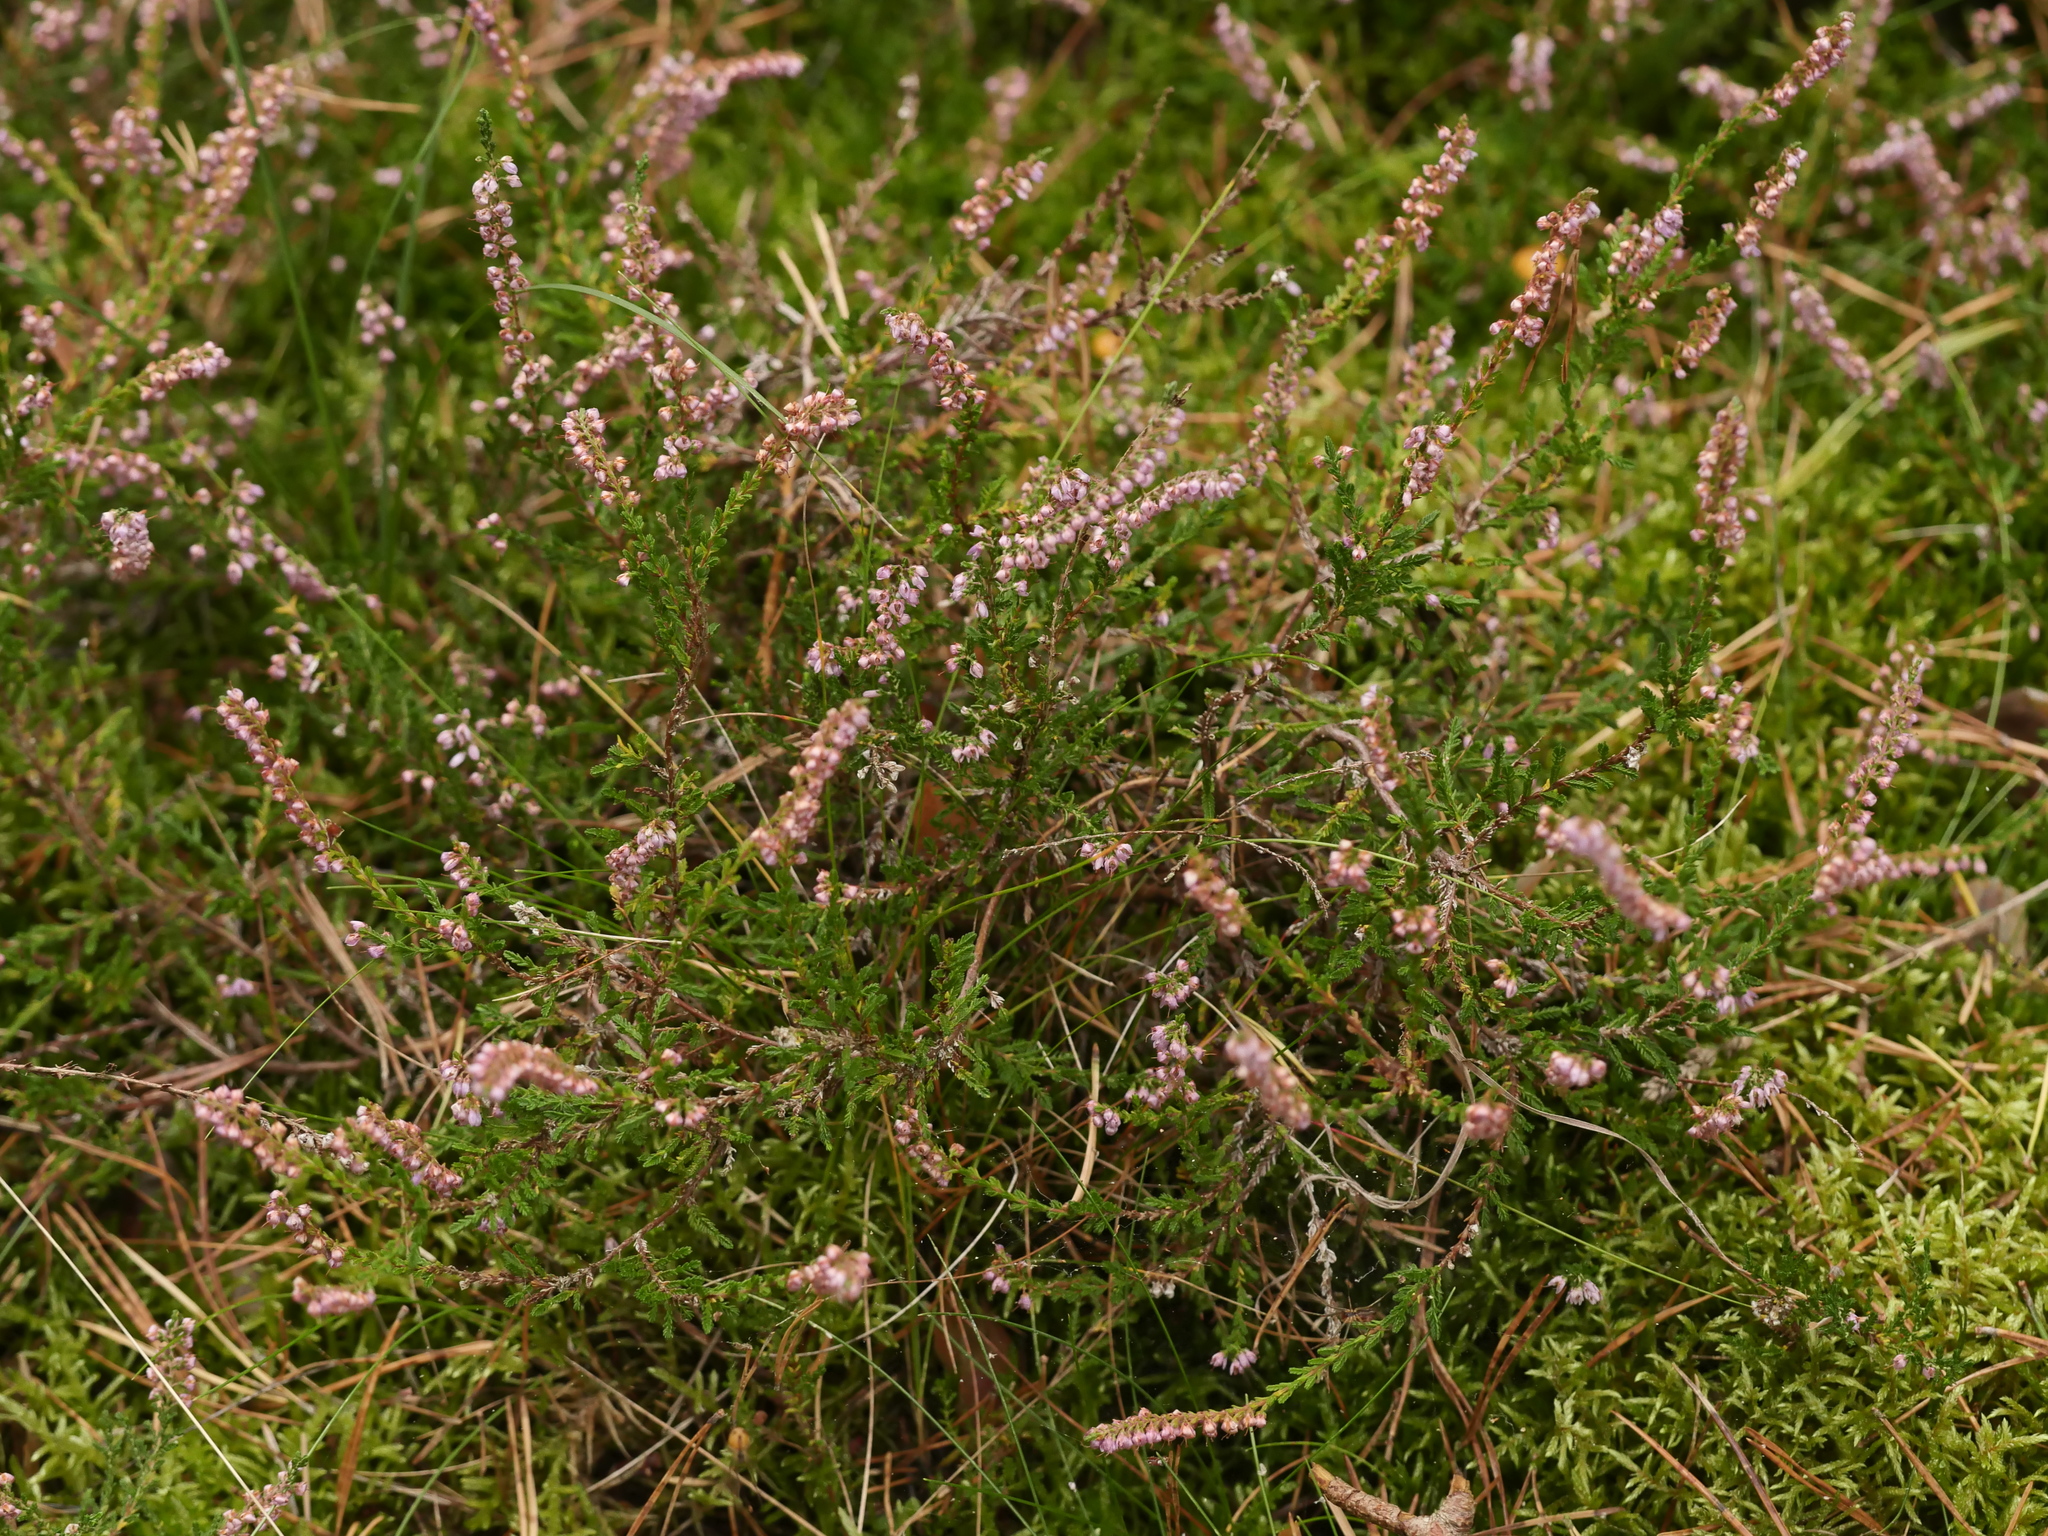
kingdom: Plantae
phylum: Tracheophyta
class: Magnoliopsida
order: Ericales
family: Ericaceae
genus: Calluna
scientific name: Calluna vulgaris
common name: Heather
